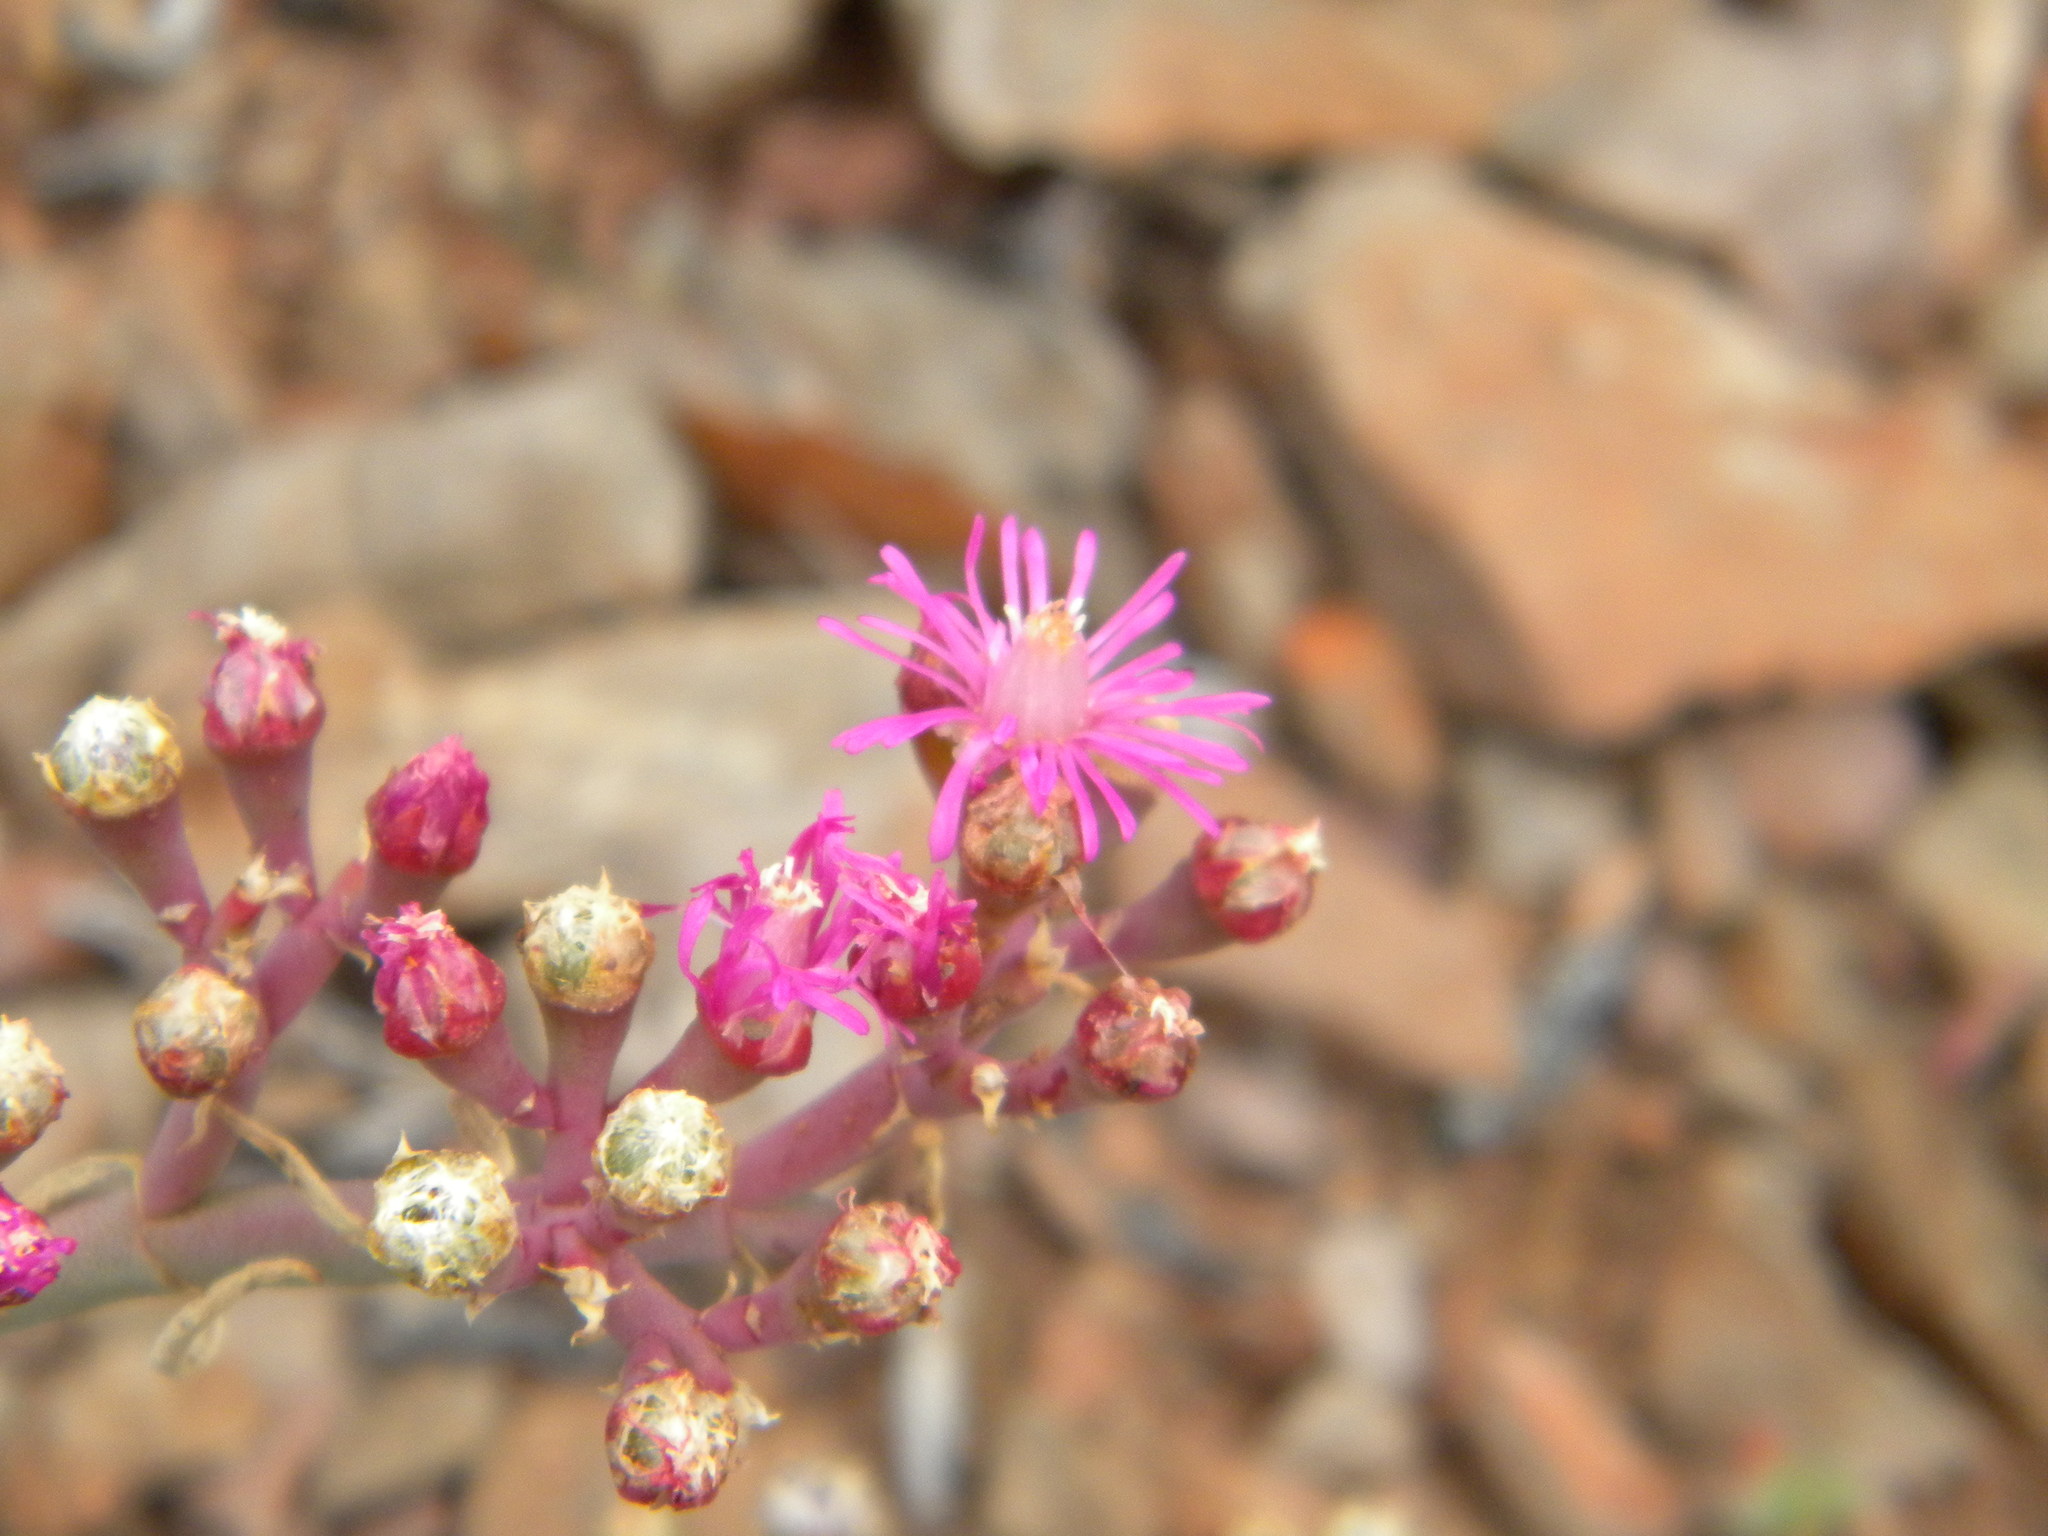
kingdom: Plantae
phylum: Tracheophyta
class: Magnoliopsida
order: Caryophyllales
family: Aizoaceae
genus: Mesembryanthemum
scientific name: Mesembryanthemum junceum
